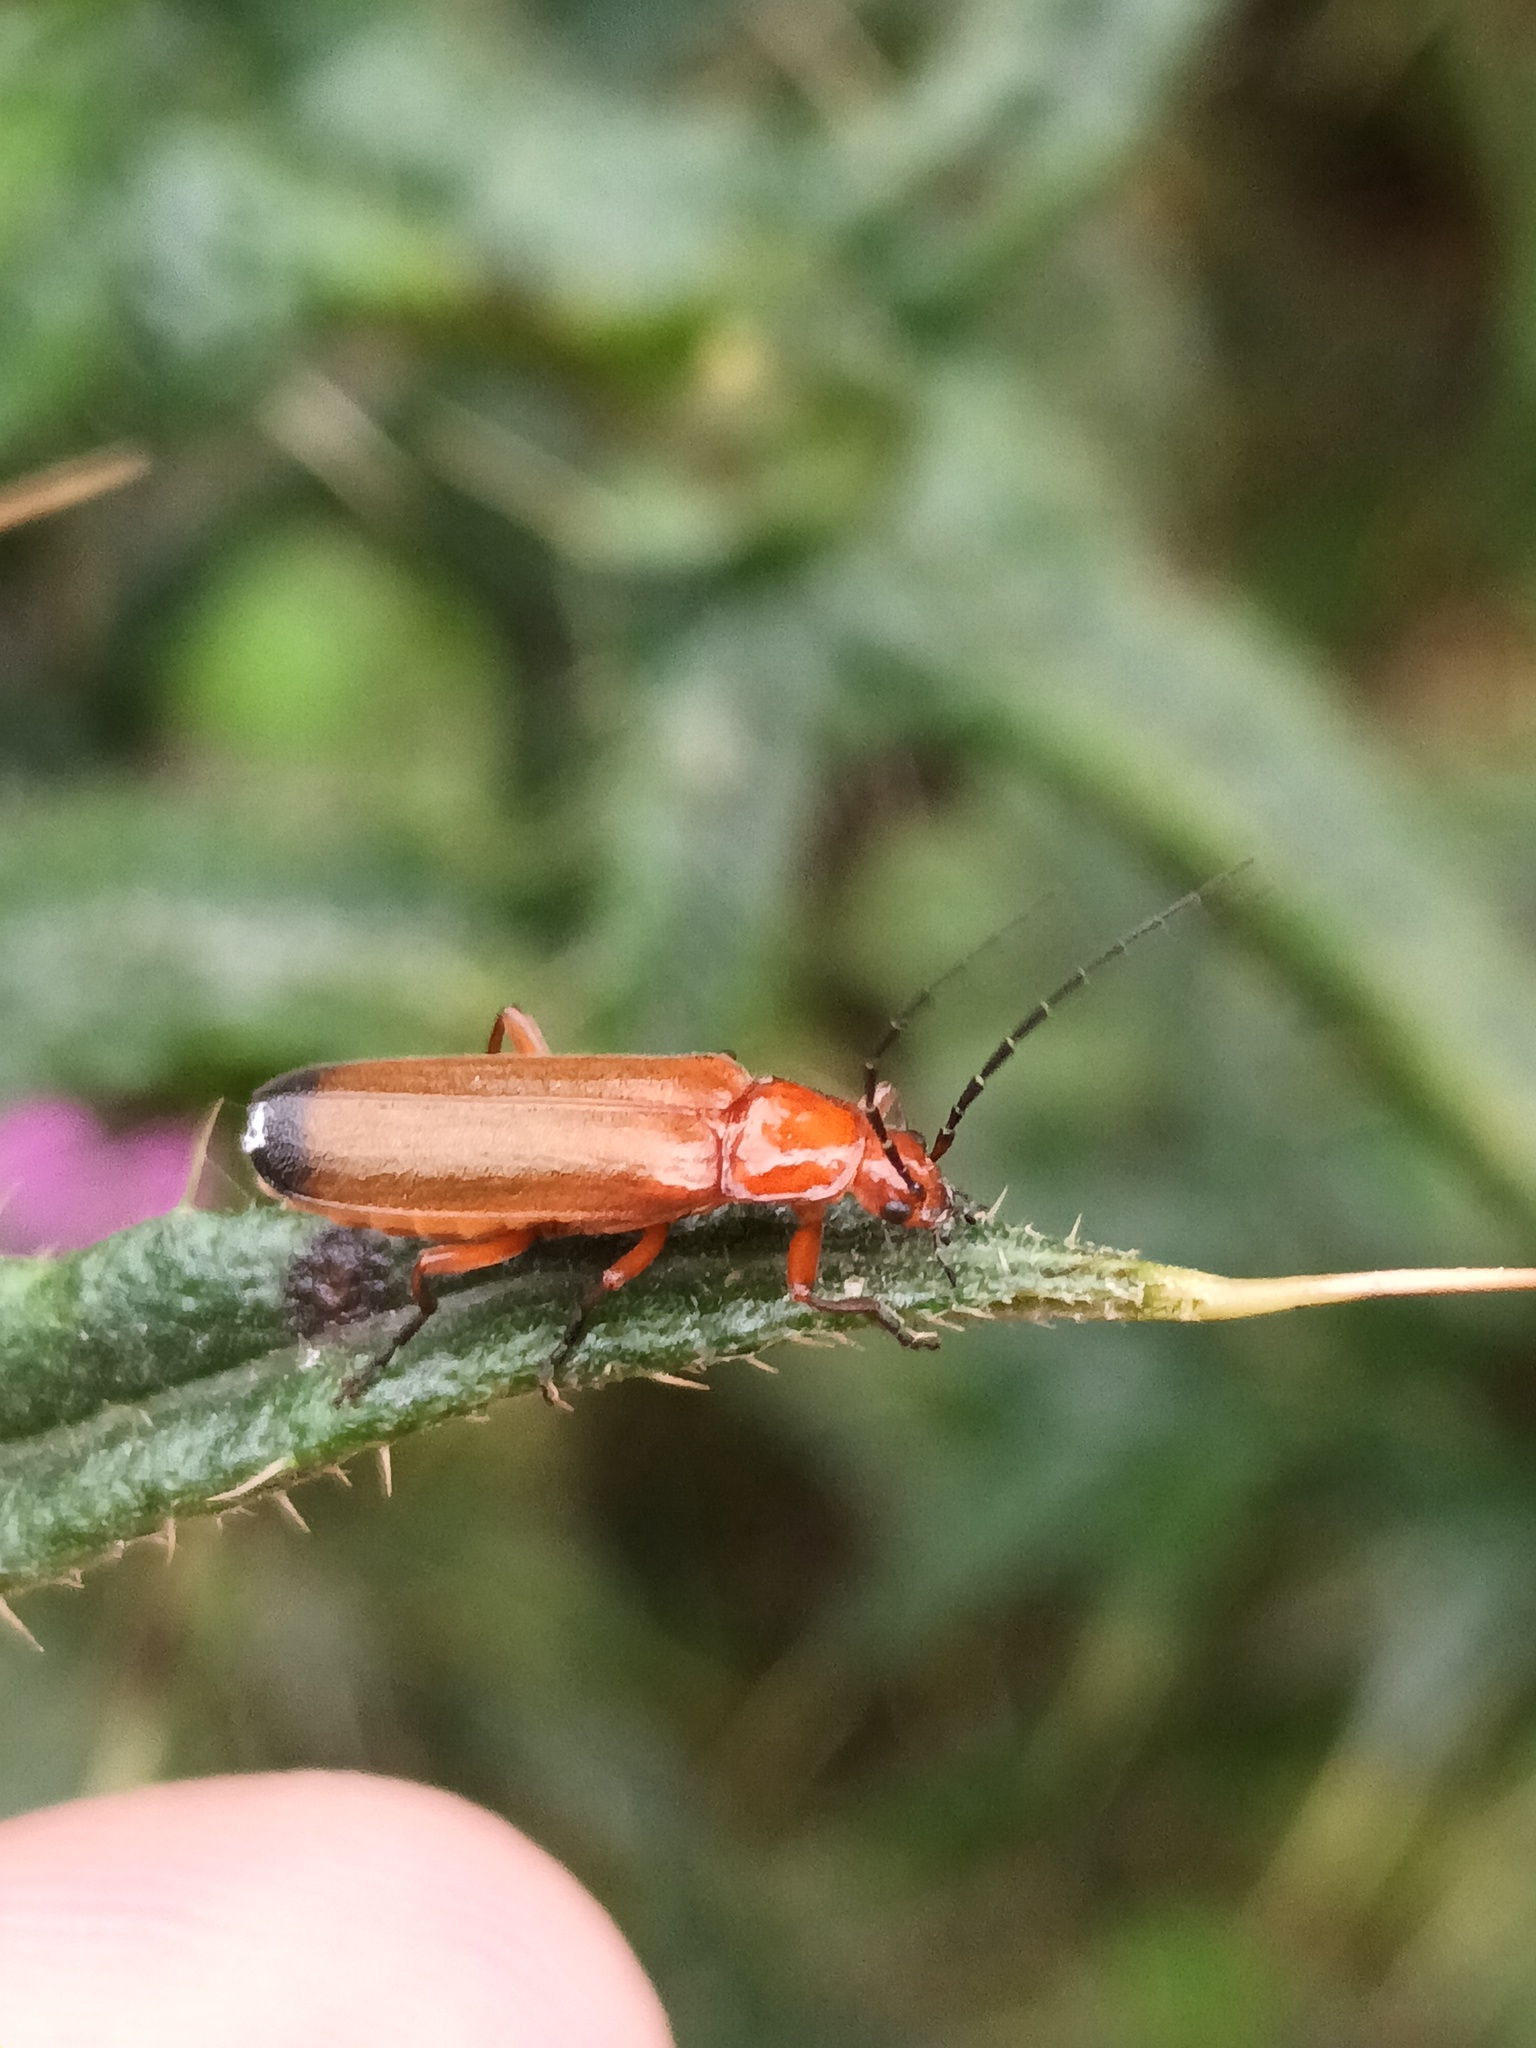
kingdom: Animalia
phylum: Arthropoda
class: Insecta
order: Coleoptera
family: Cantharidae
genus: Rhagonycha
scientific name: Rhagonycha fulva
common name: Common red soldier beetle
